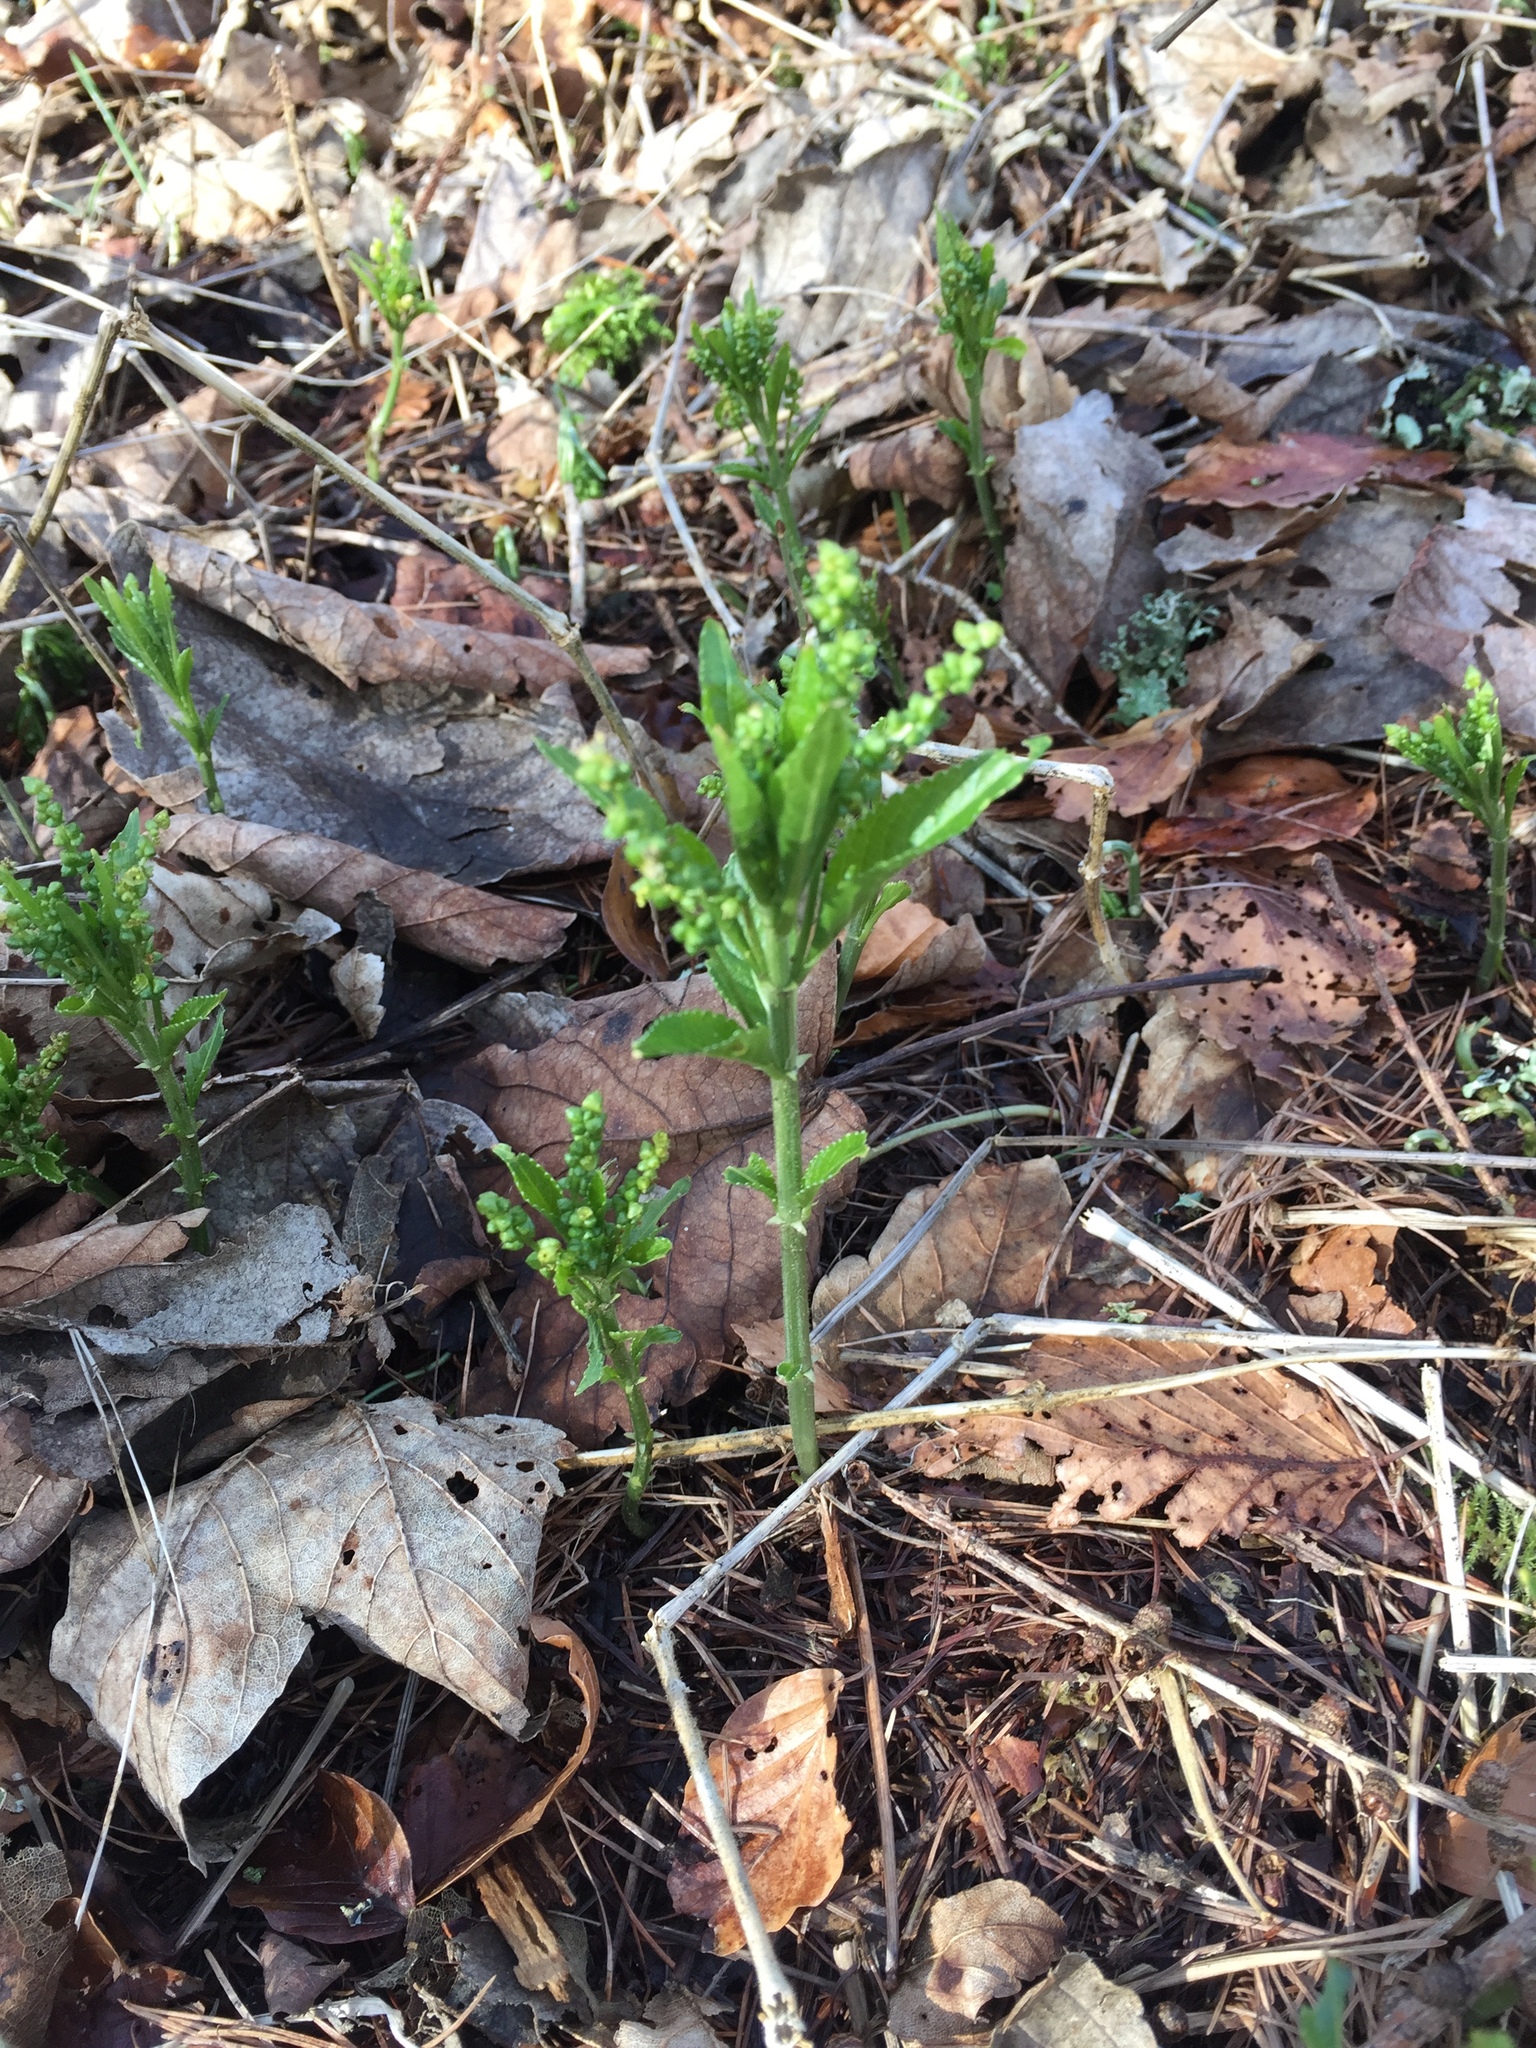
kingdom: Plantae
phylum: Tracheophyta
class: Magnoliopsida
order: Malpighiales
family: Euphorbiaceae
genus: Mercurialis
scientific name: Mercurialis perennis
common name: Dog mercury
